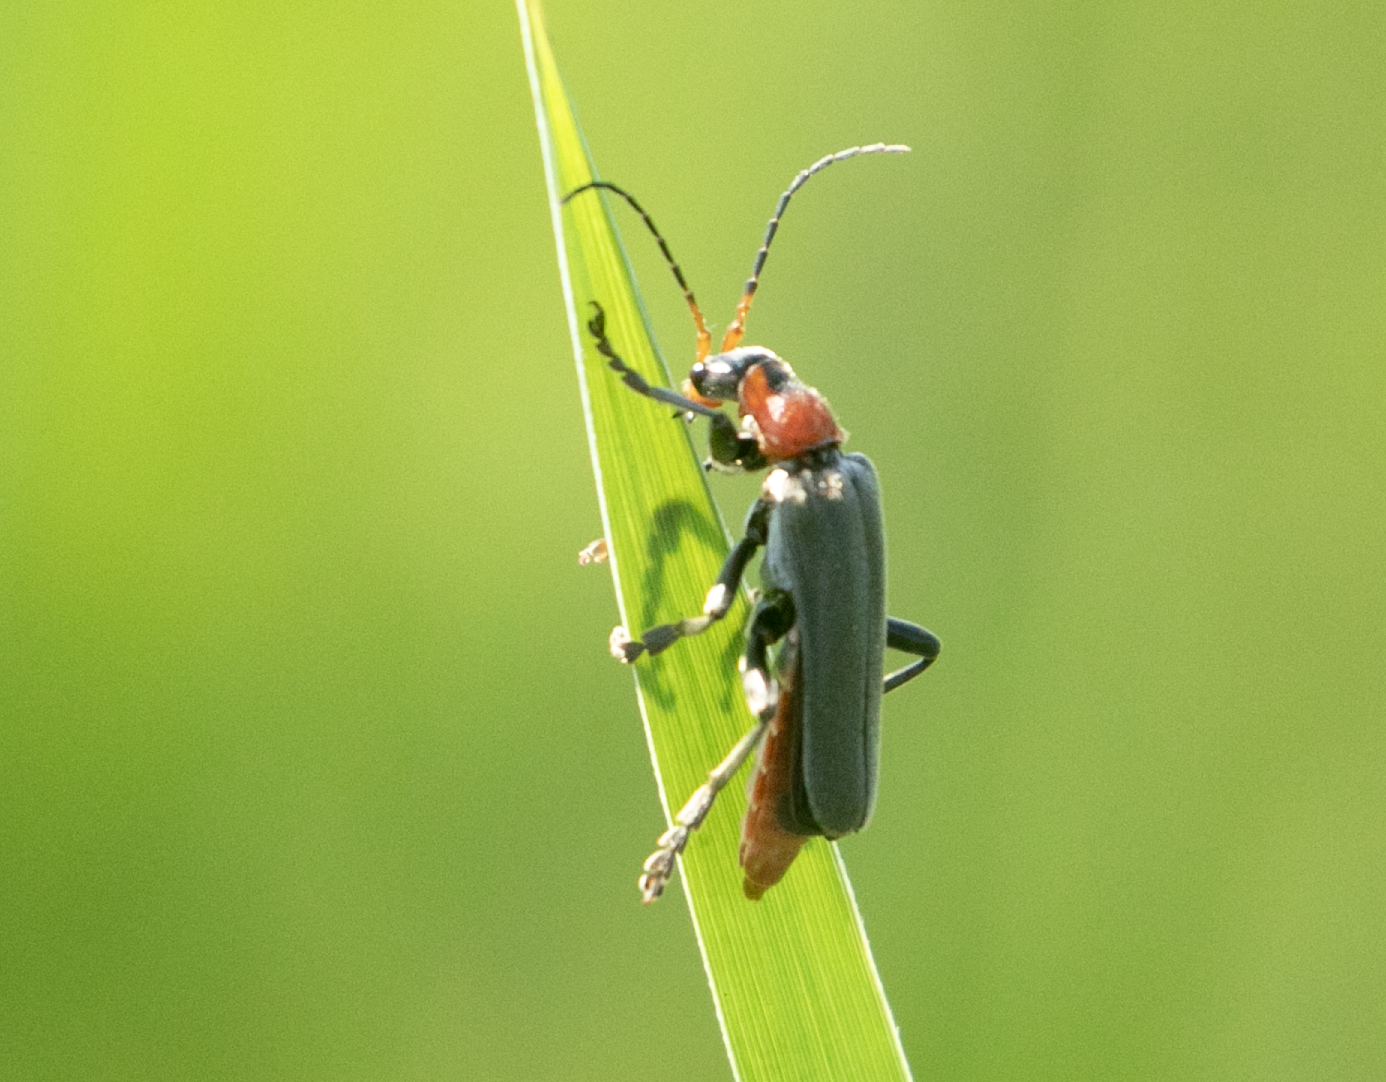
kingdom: Animalia
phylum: Arthropoda
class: Insecta
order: Coleoptera
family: Cantharidae
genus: Cantharis
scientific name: Cantharis fusca
